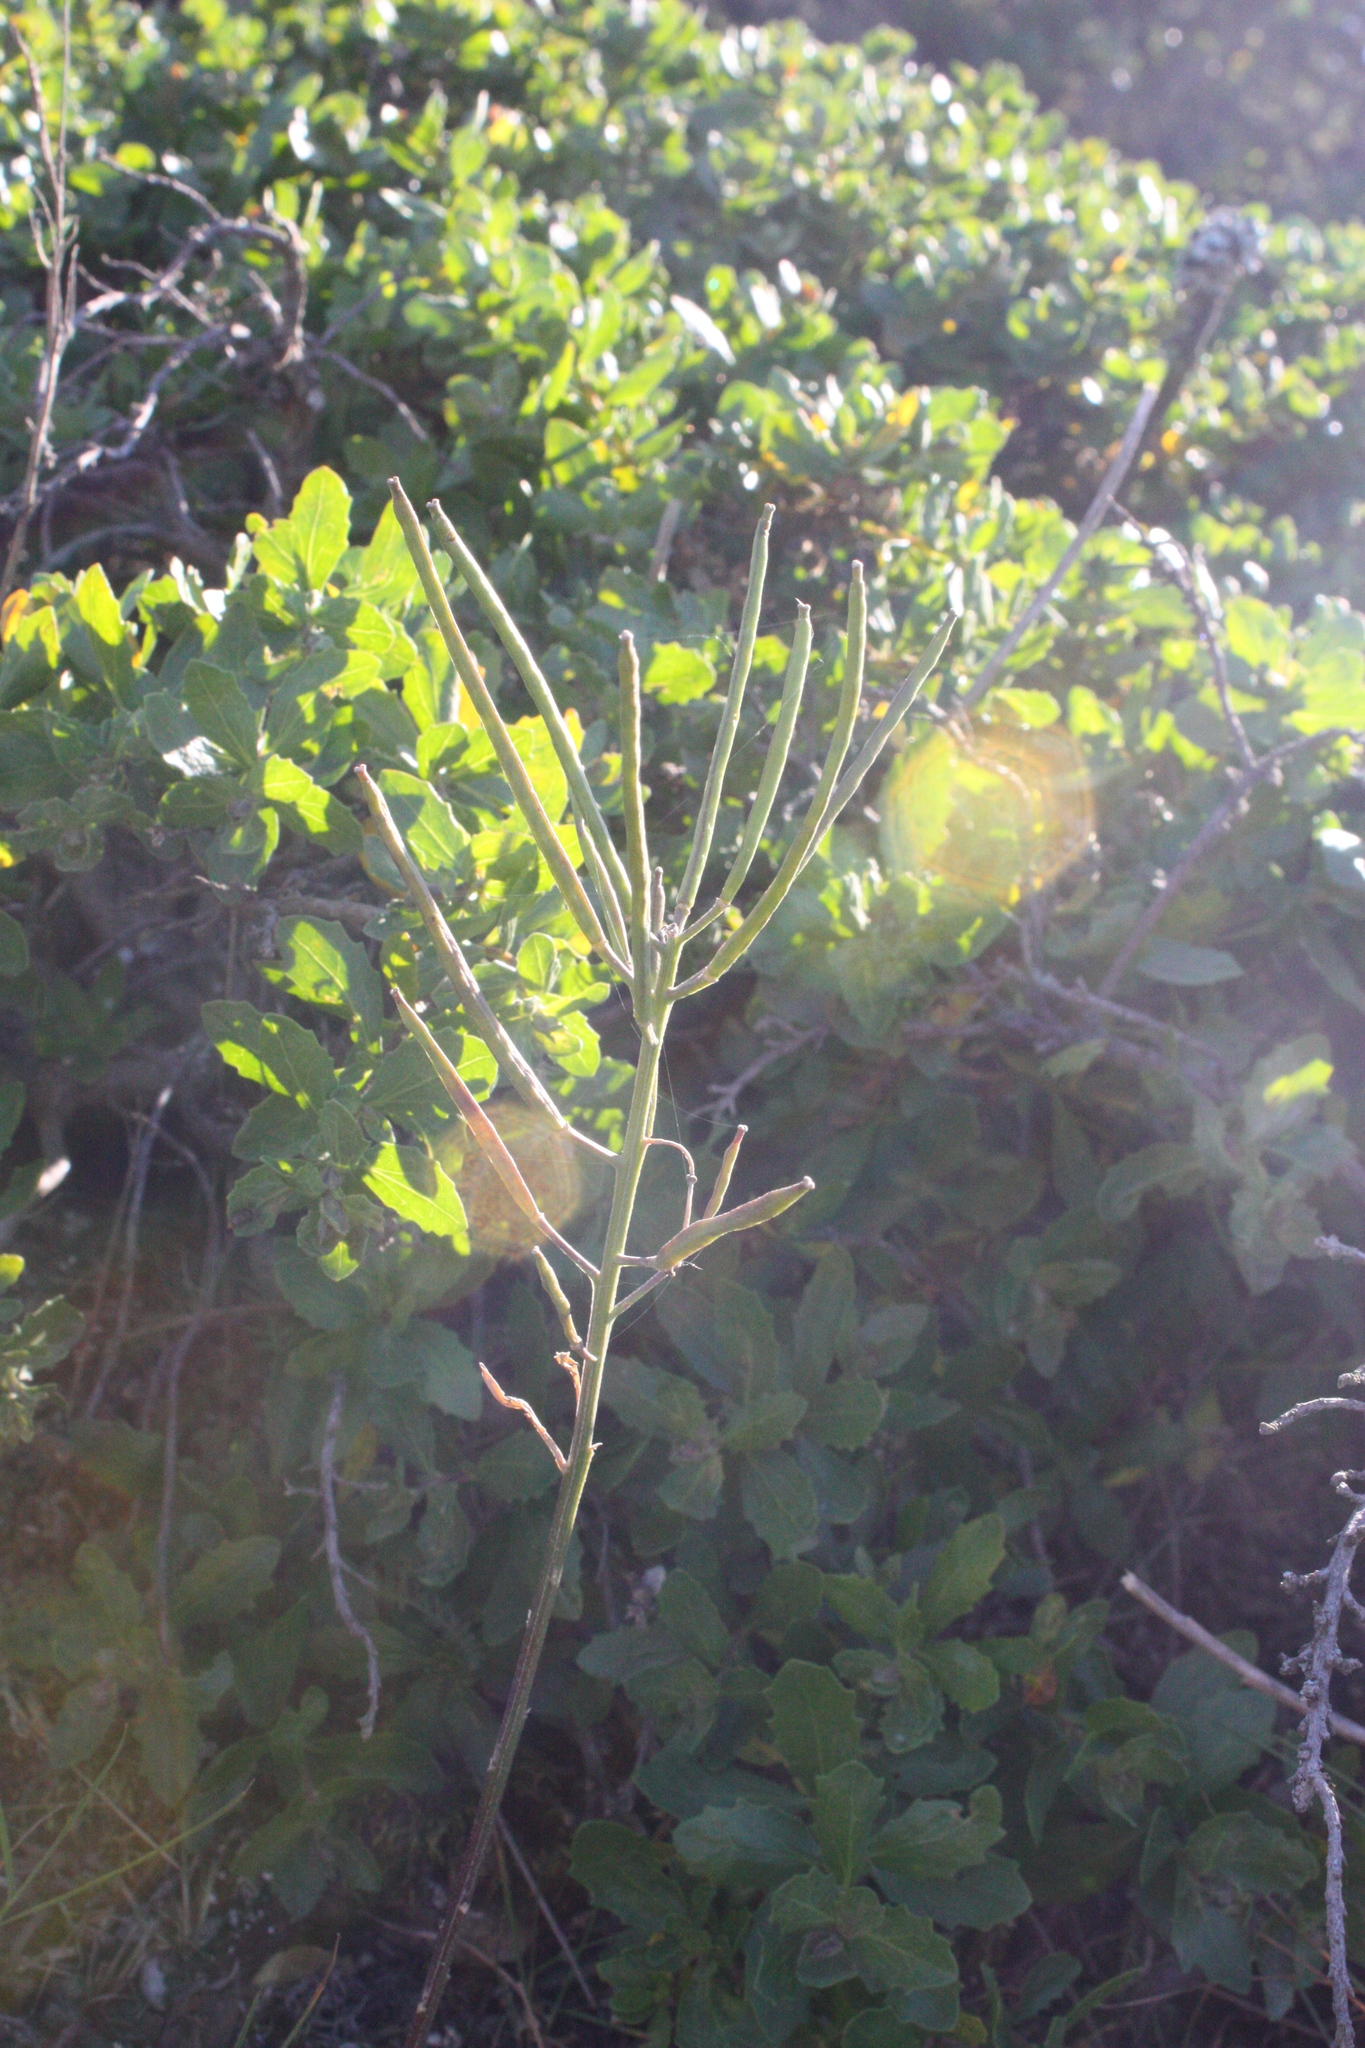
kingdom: Plantae
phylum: Tracheophyta
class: Magnoliopsida
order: Brassicales
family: Brassicaceae
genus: Erysimum
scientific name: Erysimum franciscanum
